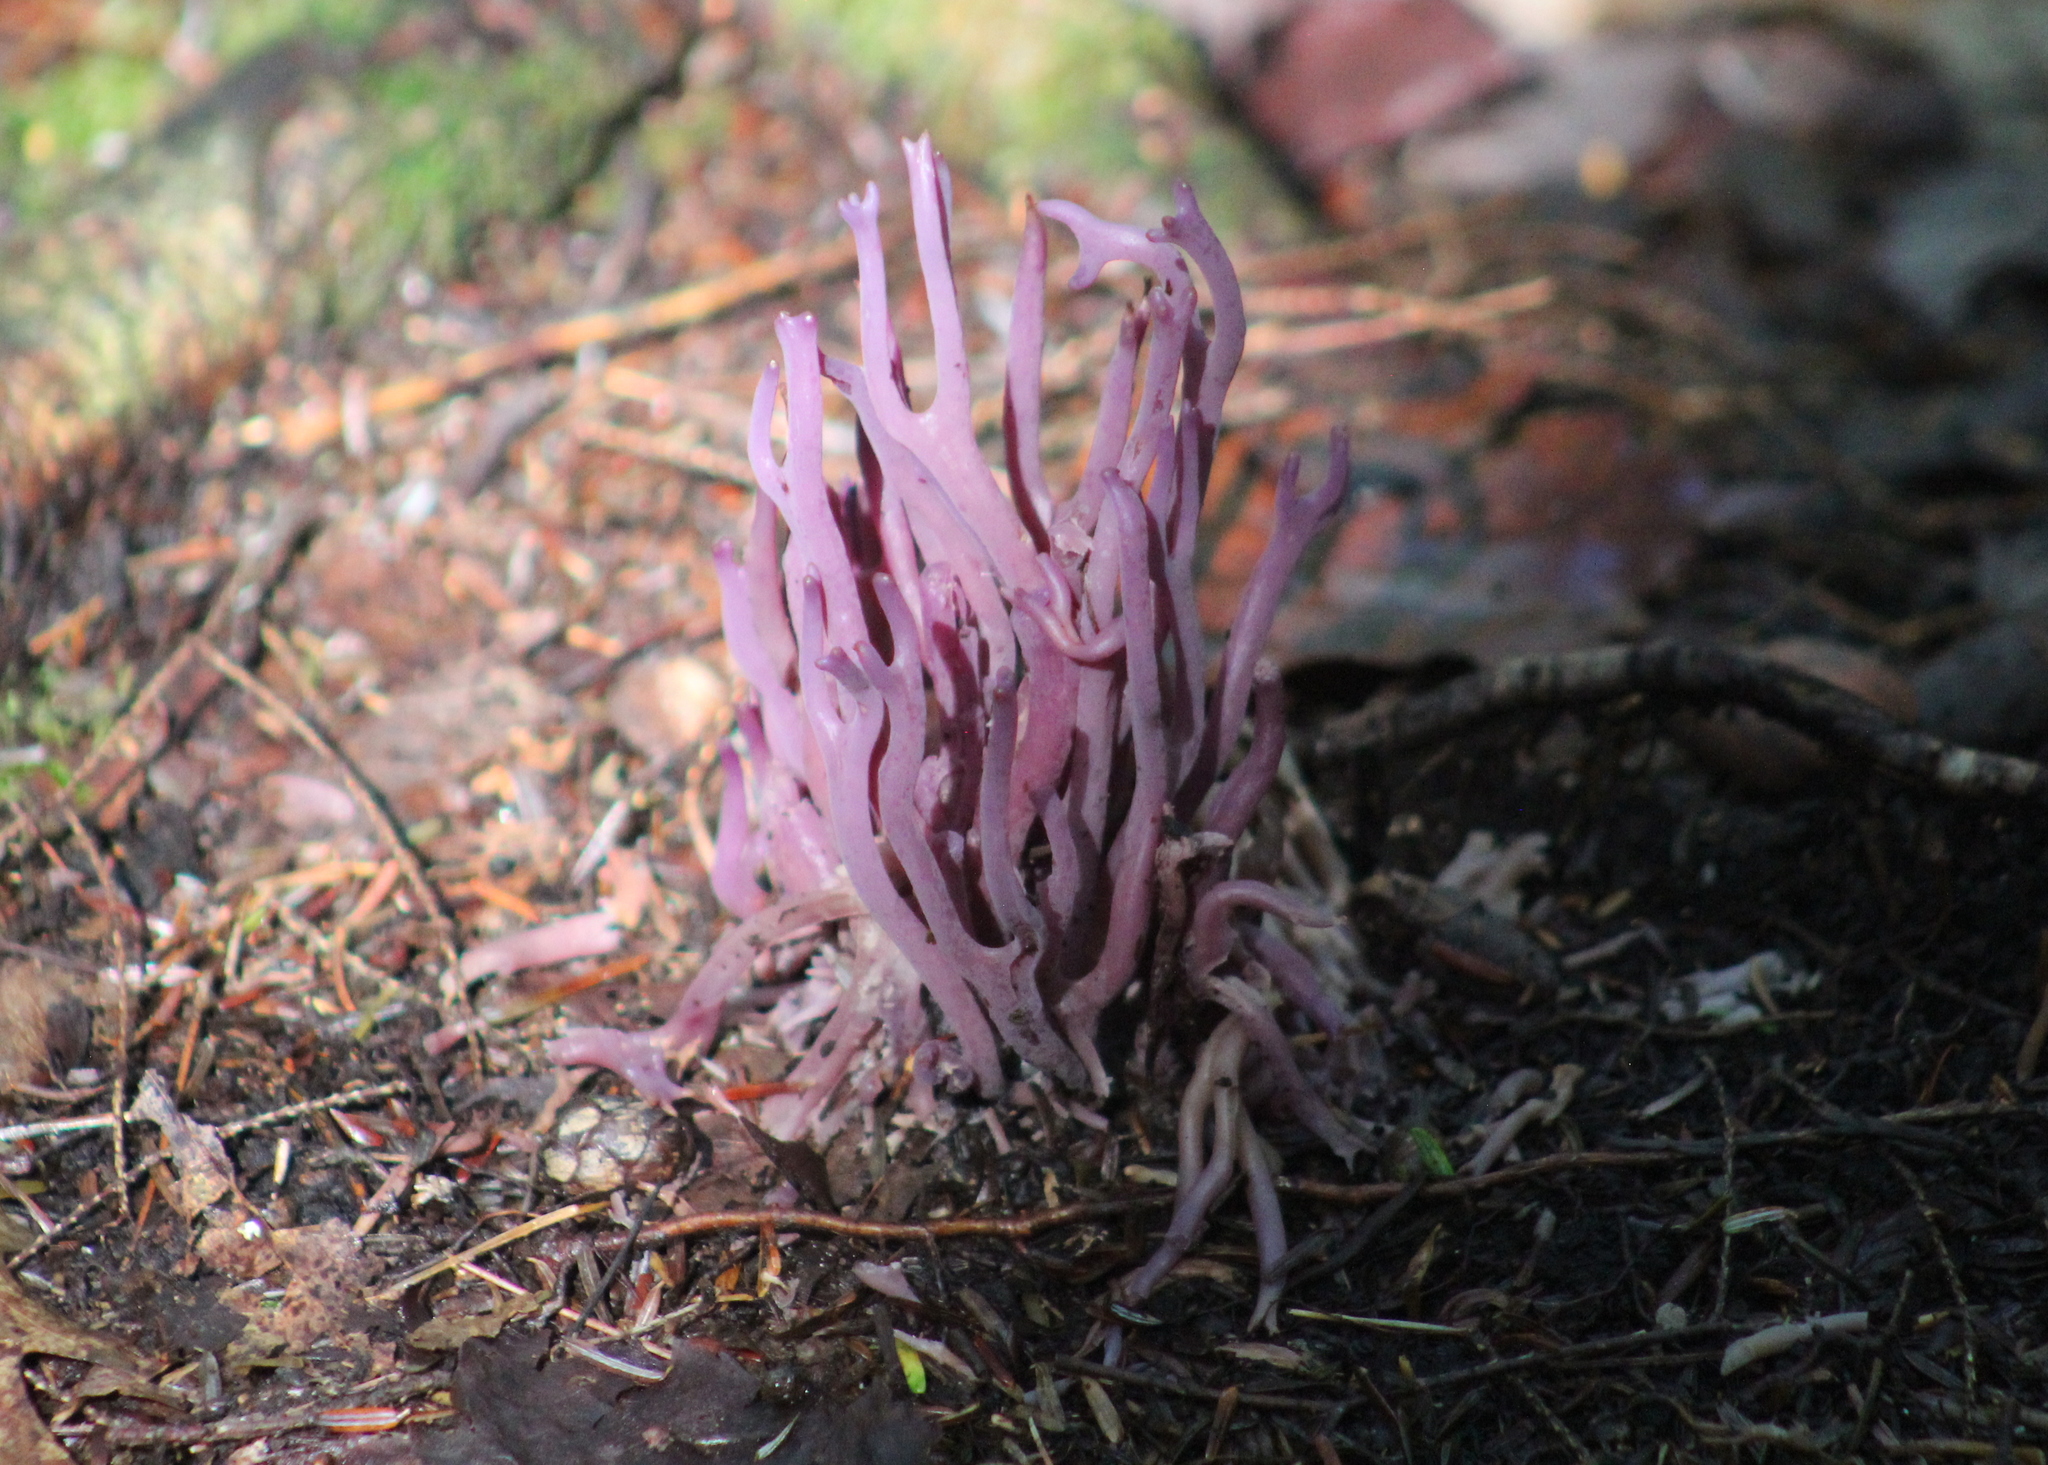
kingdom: Fungi
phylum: Basidiomycota
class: Agaricomycetes
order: Agaricales
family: Clavariaceae
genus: Clavaria
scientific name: Clavaria zollingeri
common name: Violet coral
